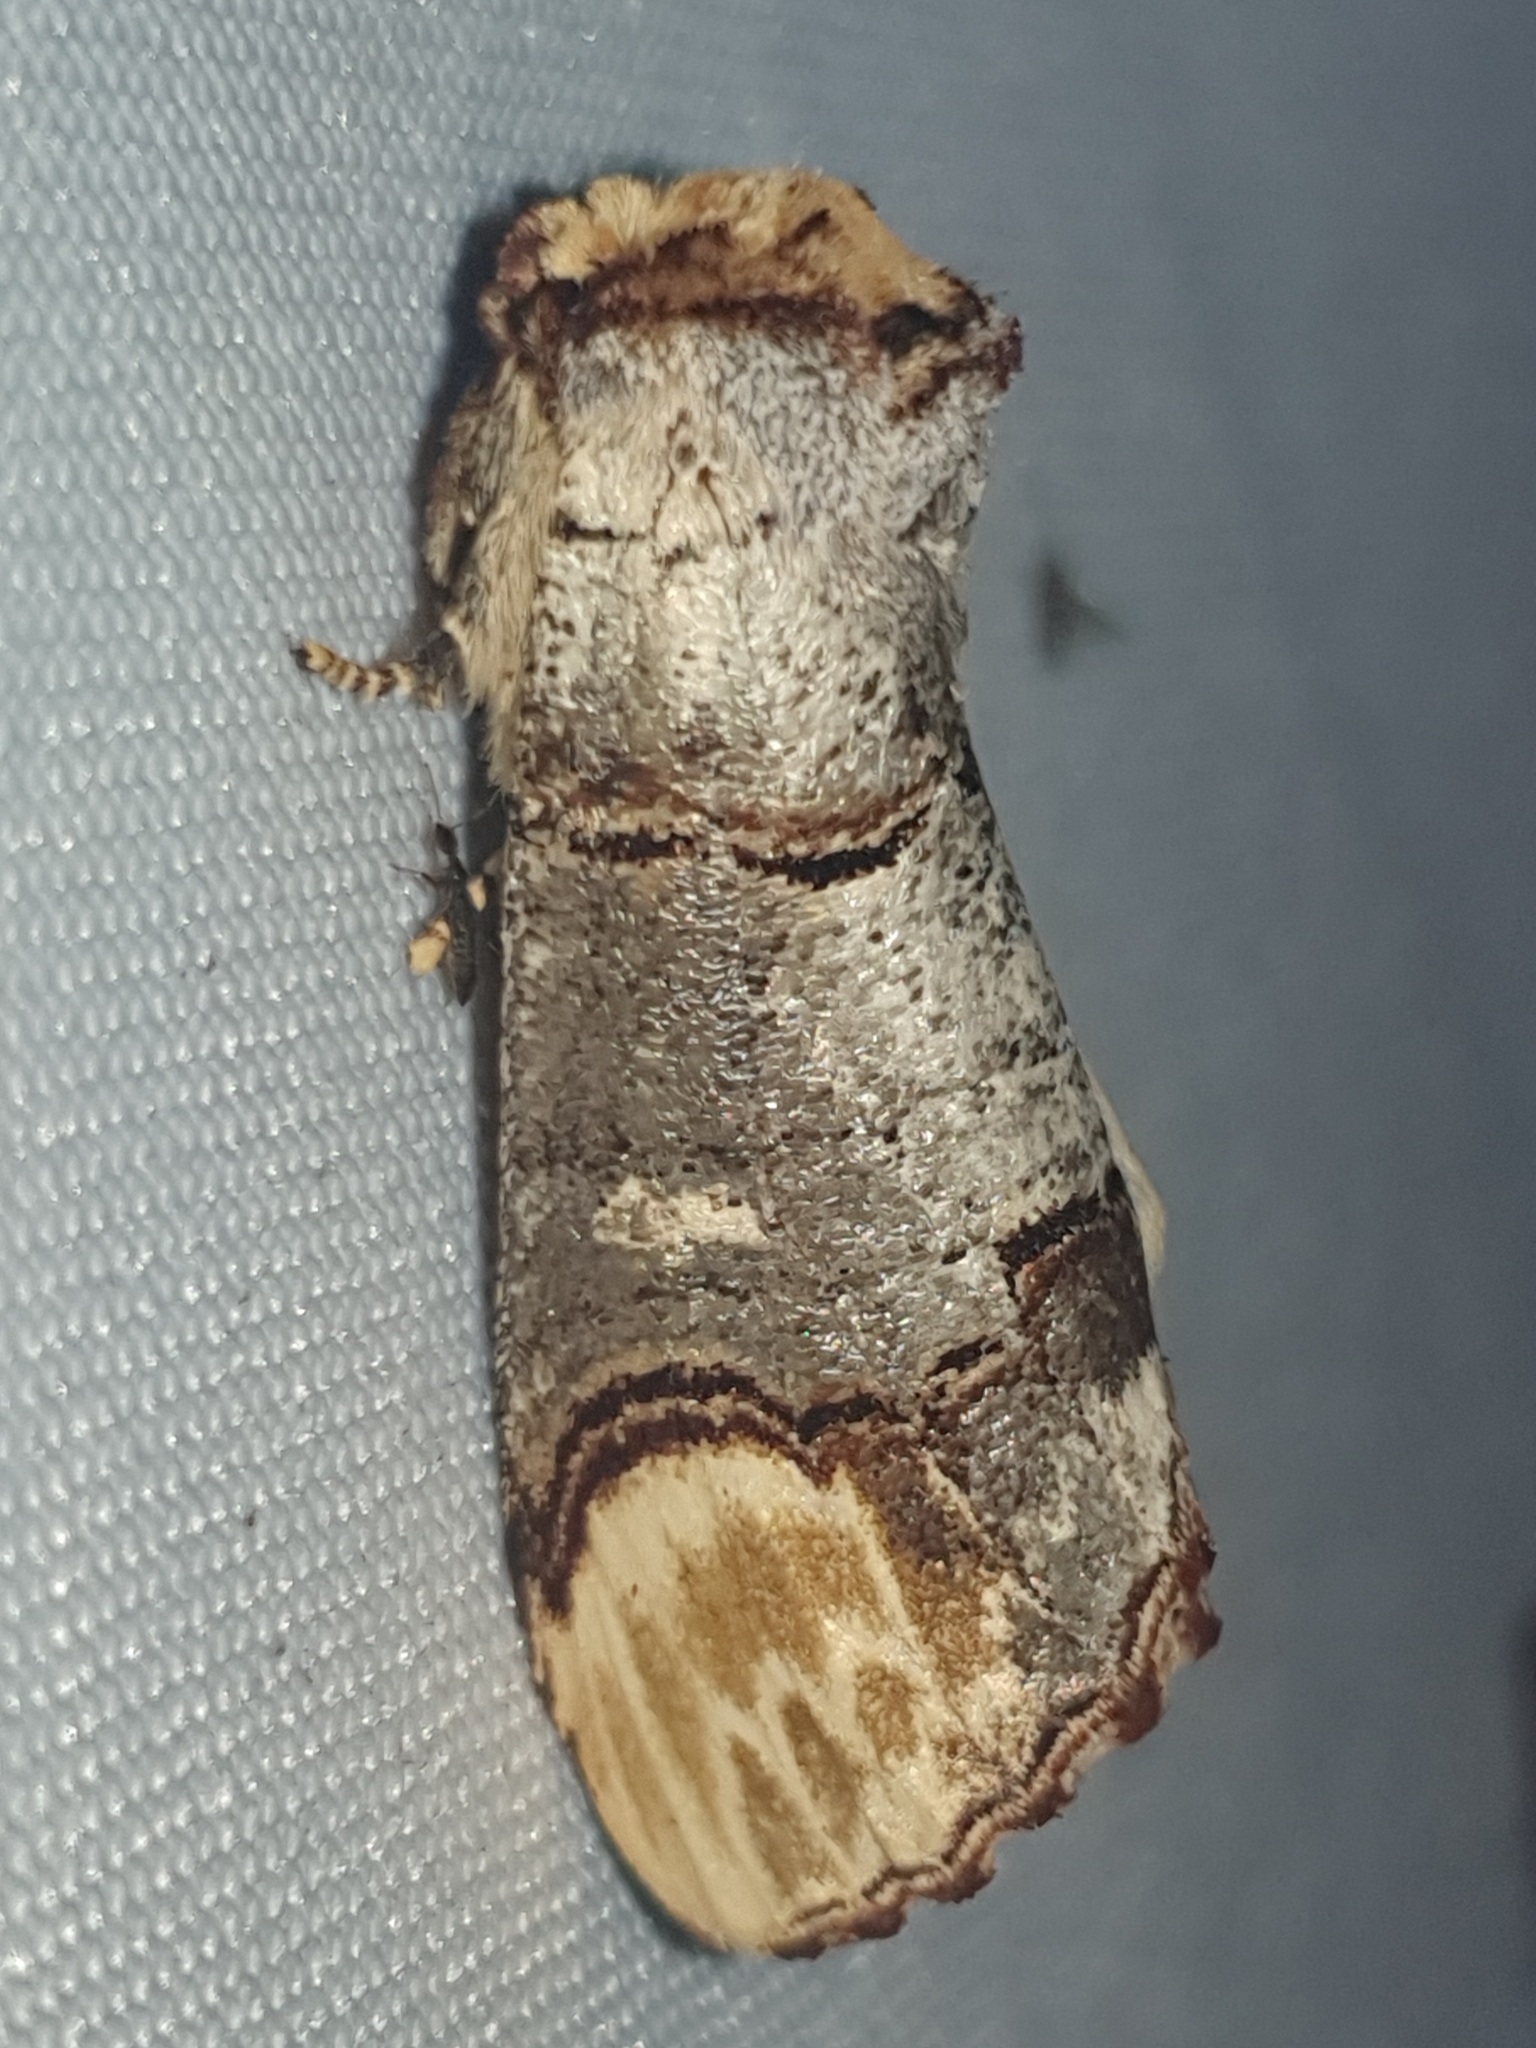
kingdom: Animalia
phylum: Arthropoda
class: Insecta
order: Lepidoptera
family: Notodontidae
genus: Phalera
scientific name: Phalera bucephala
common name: Buff-tip
